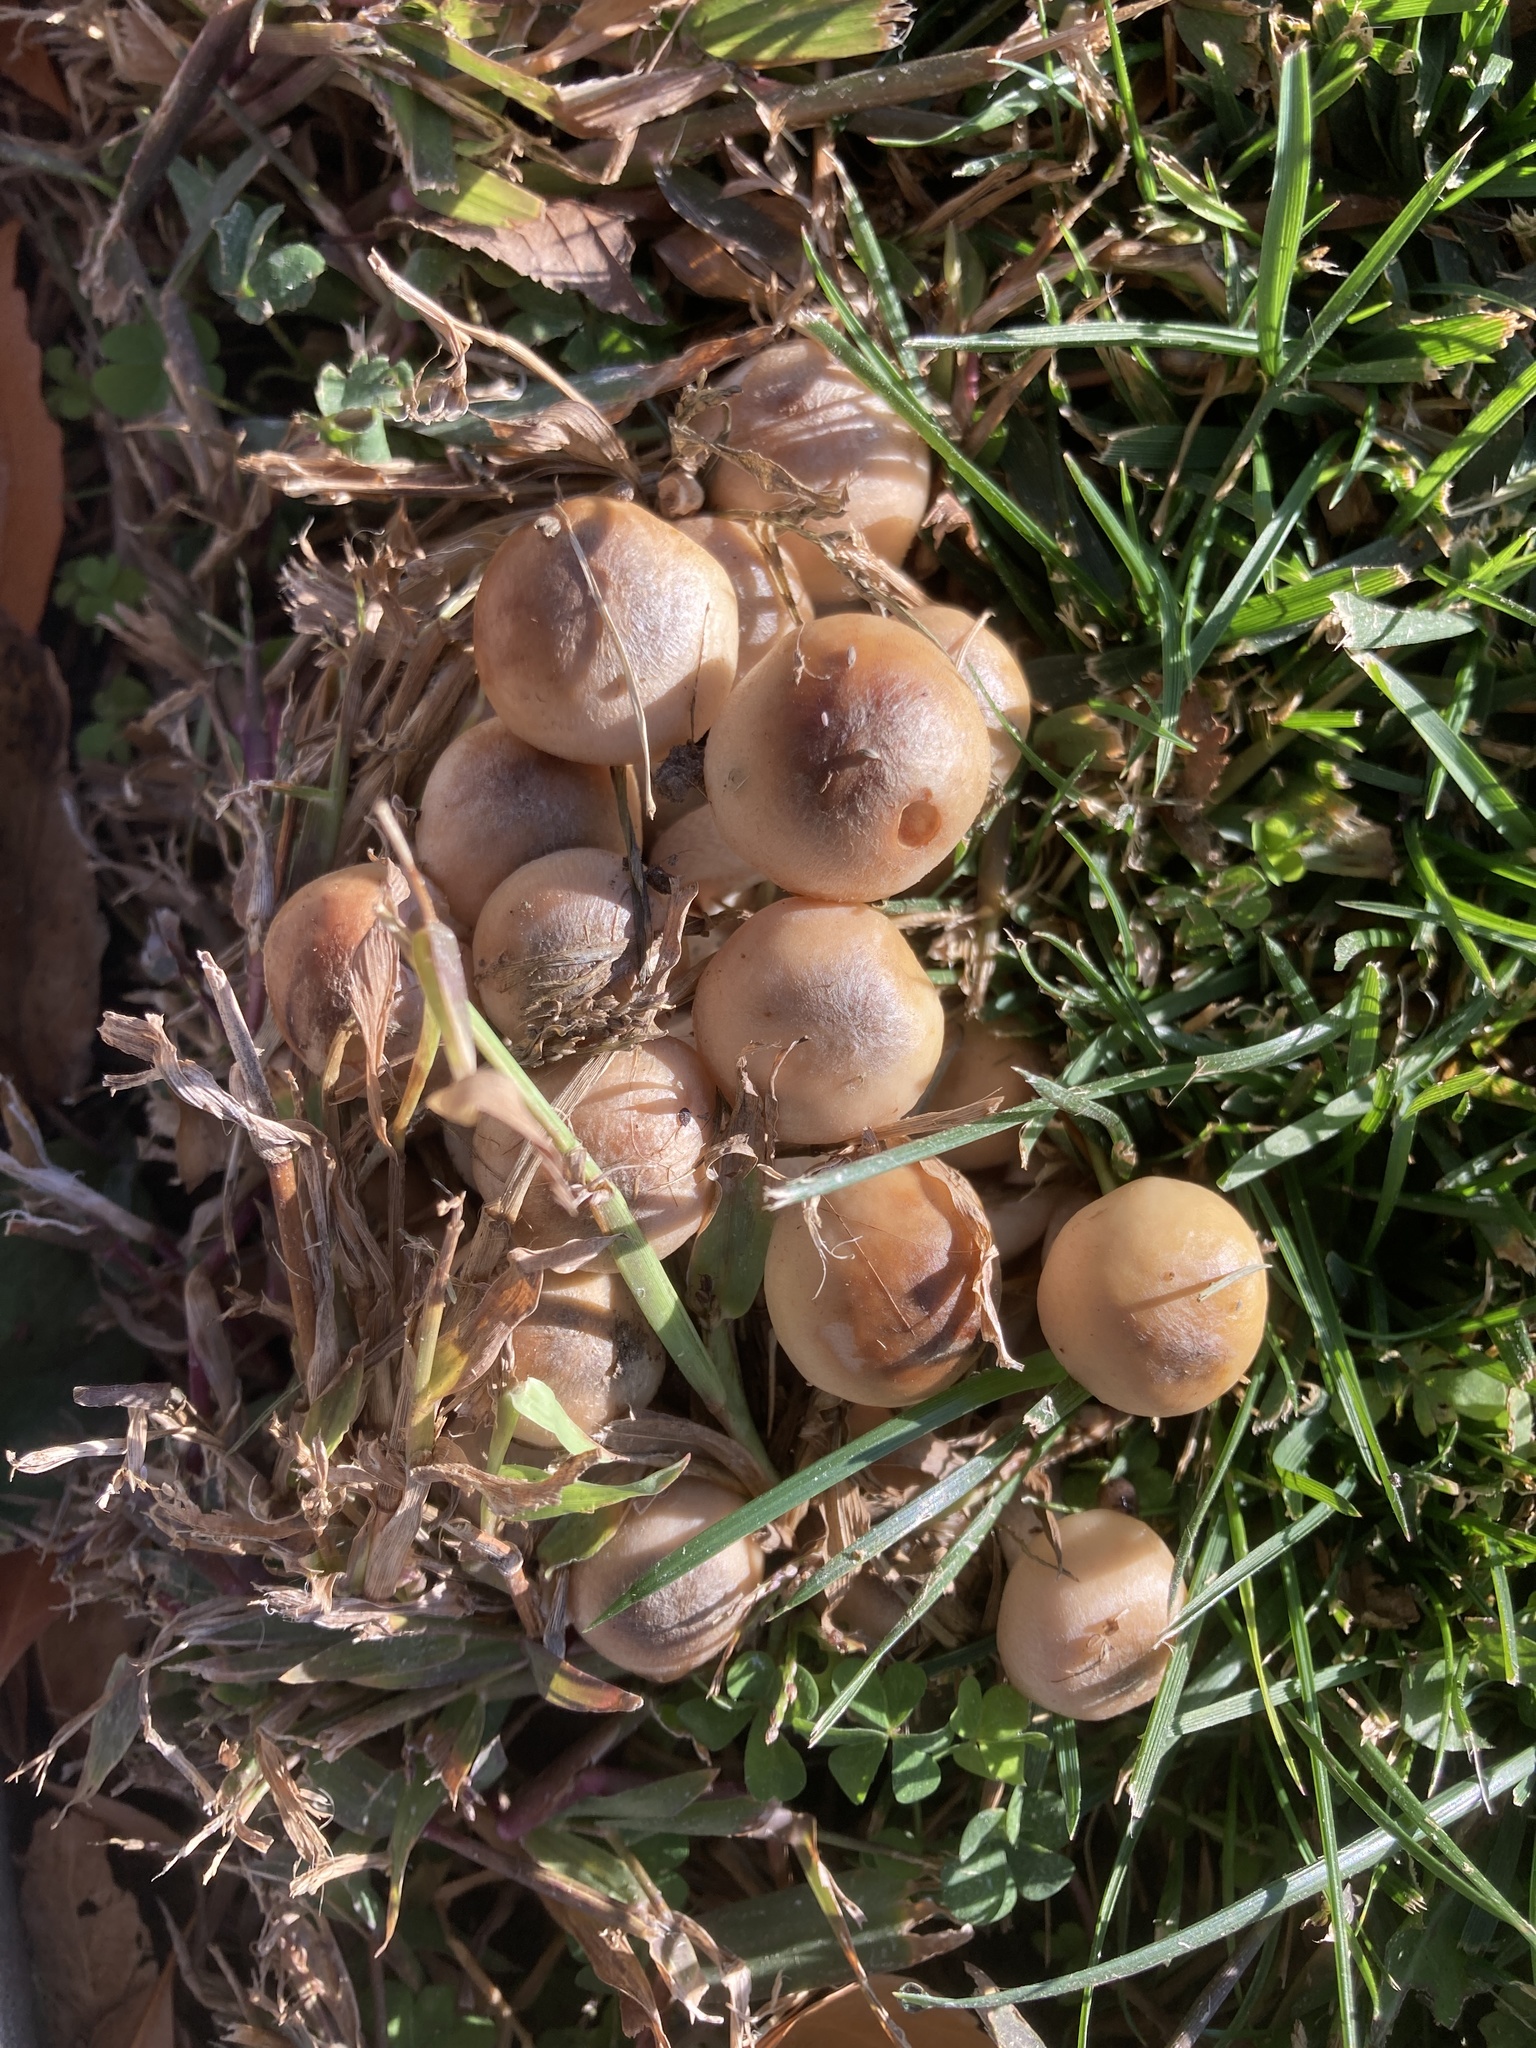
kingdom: Fungi
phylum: Basidiomycota
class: Agaricomycetes
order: Agaricales
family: Physalacriaceae
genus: Armillaria
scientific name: Armillaria mellea
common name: Honey fungus
